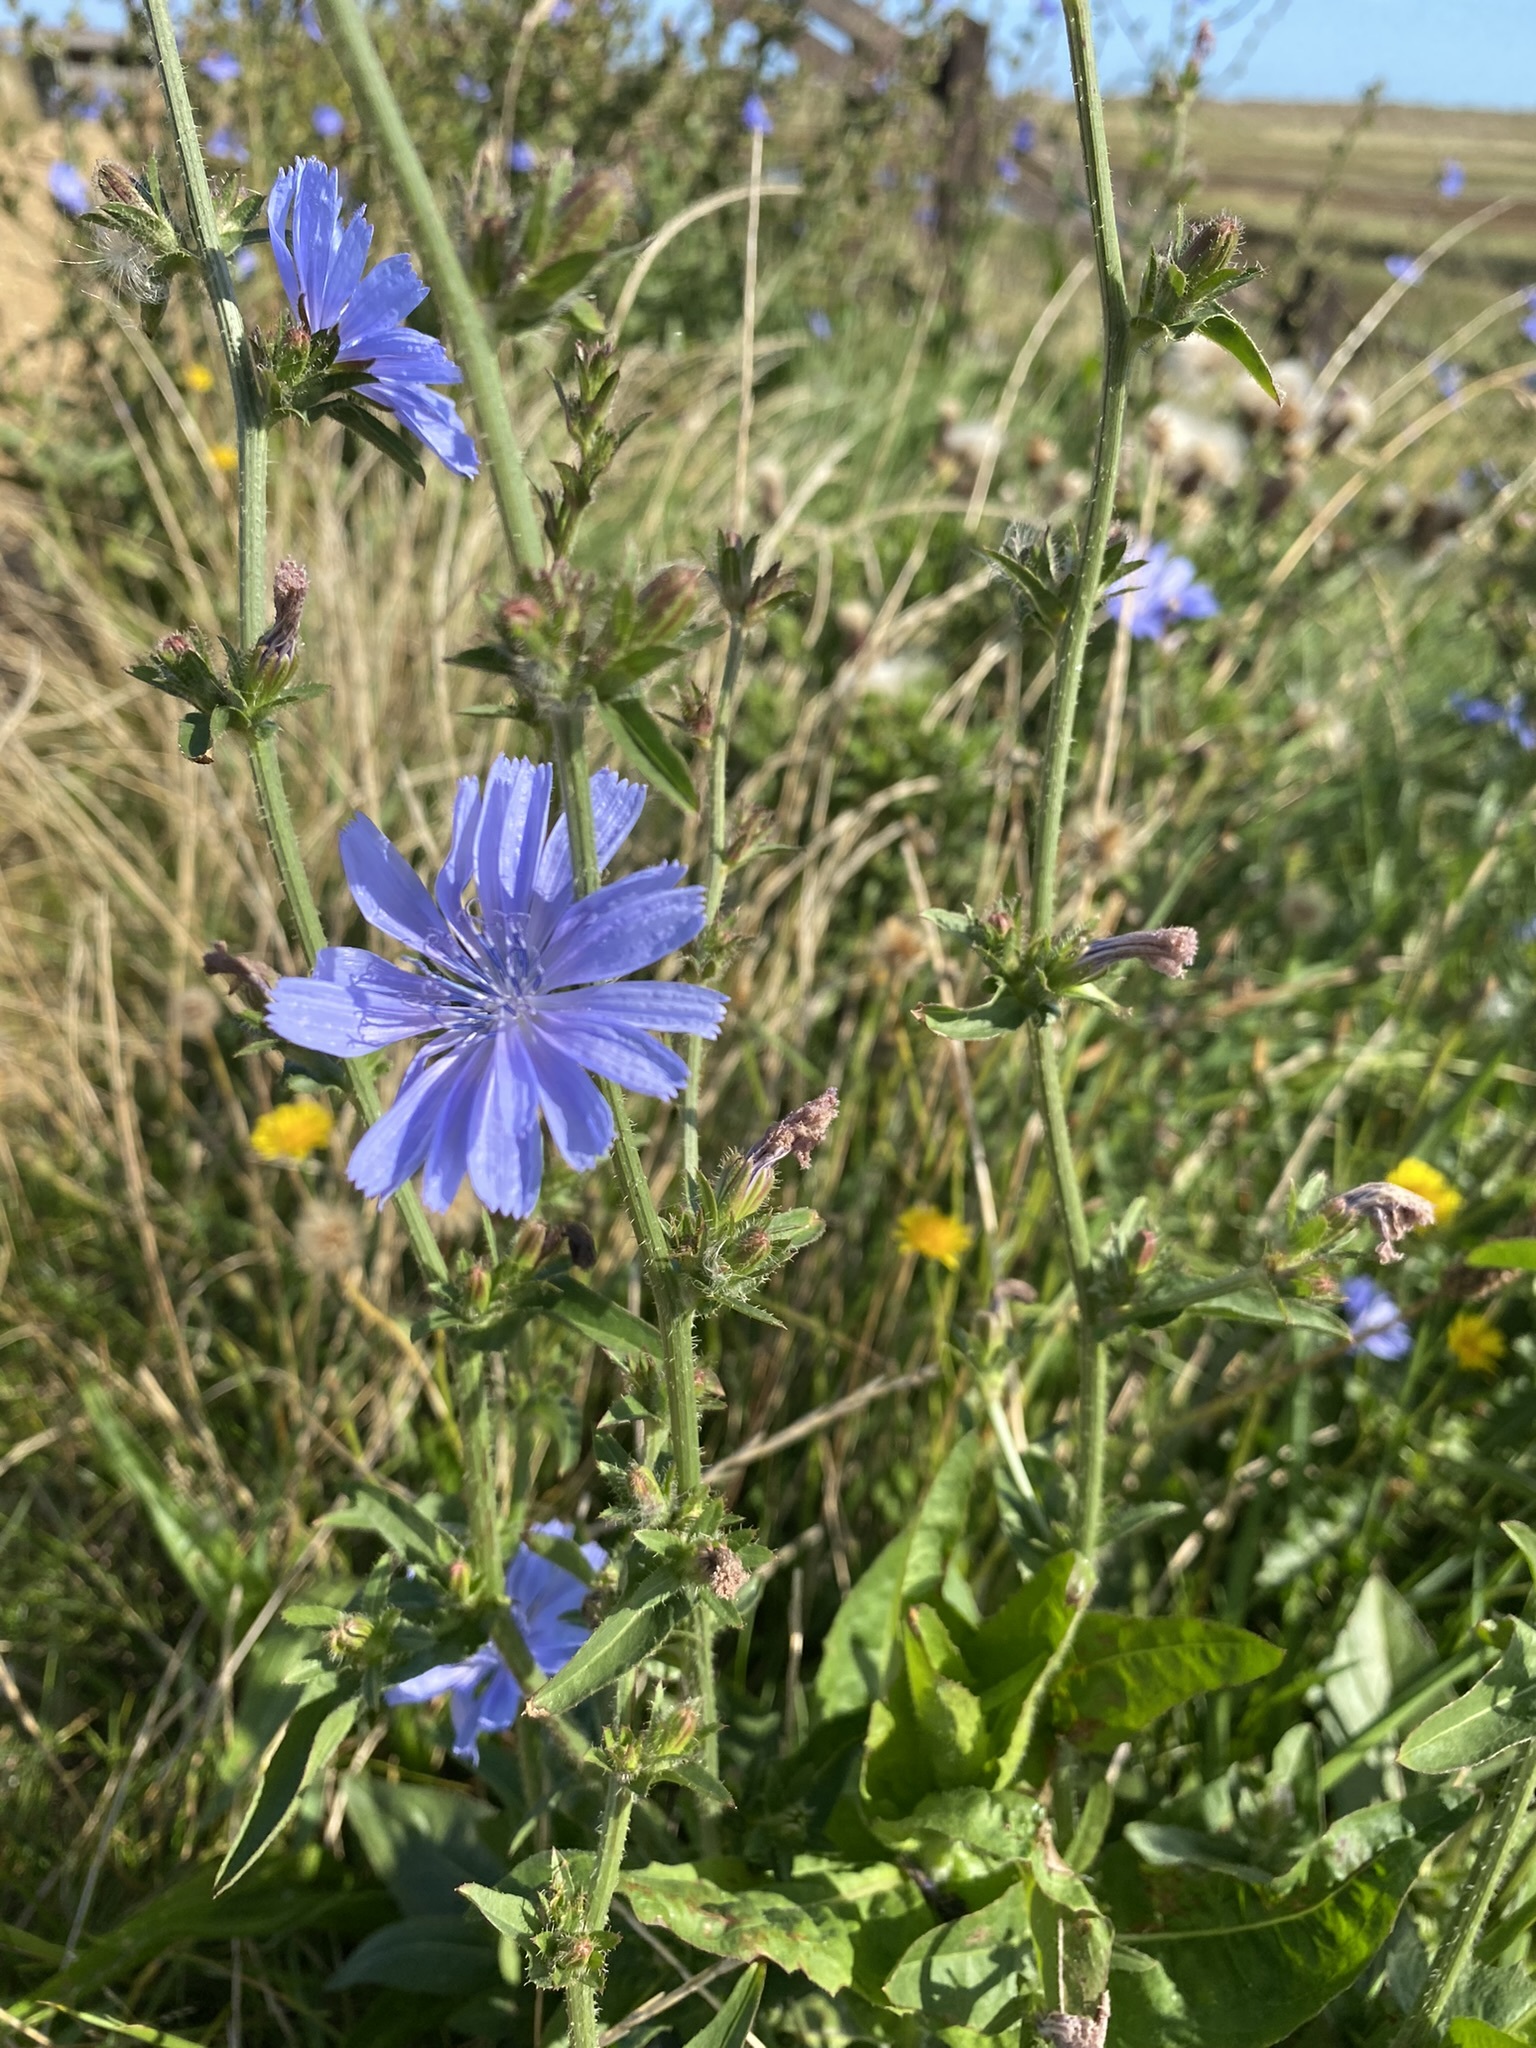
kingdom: Plantae
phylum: Tracheophyta
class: Magnoliopsida
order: Asterales
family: Asteraceae
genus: Cichorium
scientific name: Cichorium intybus
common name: Chicory
